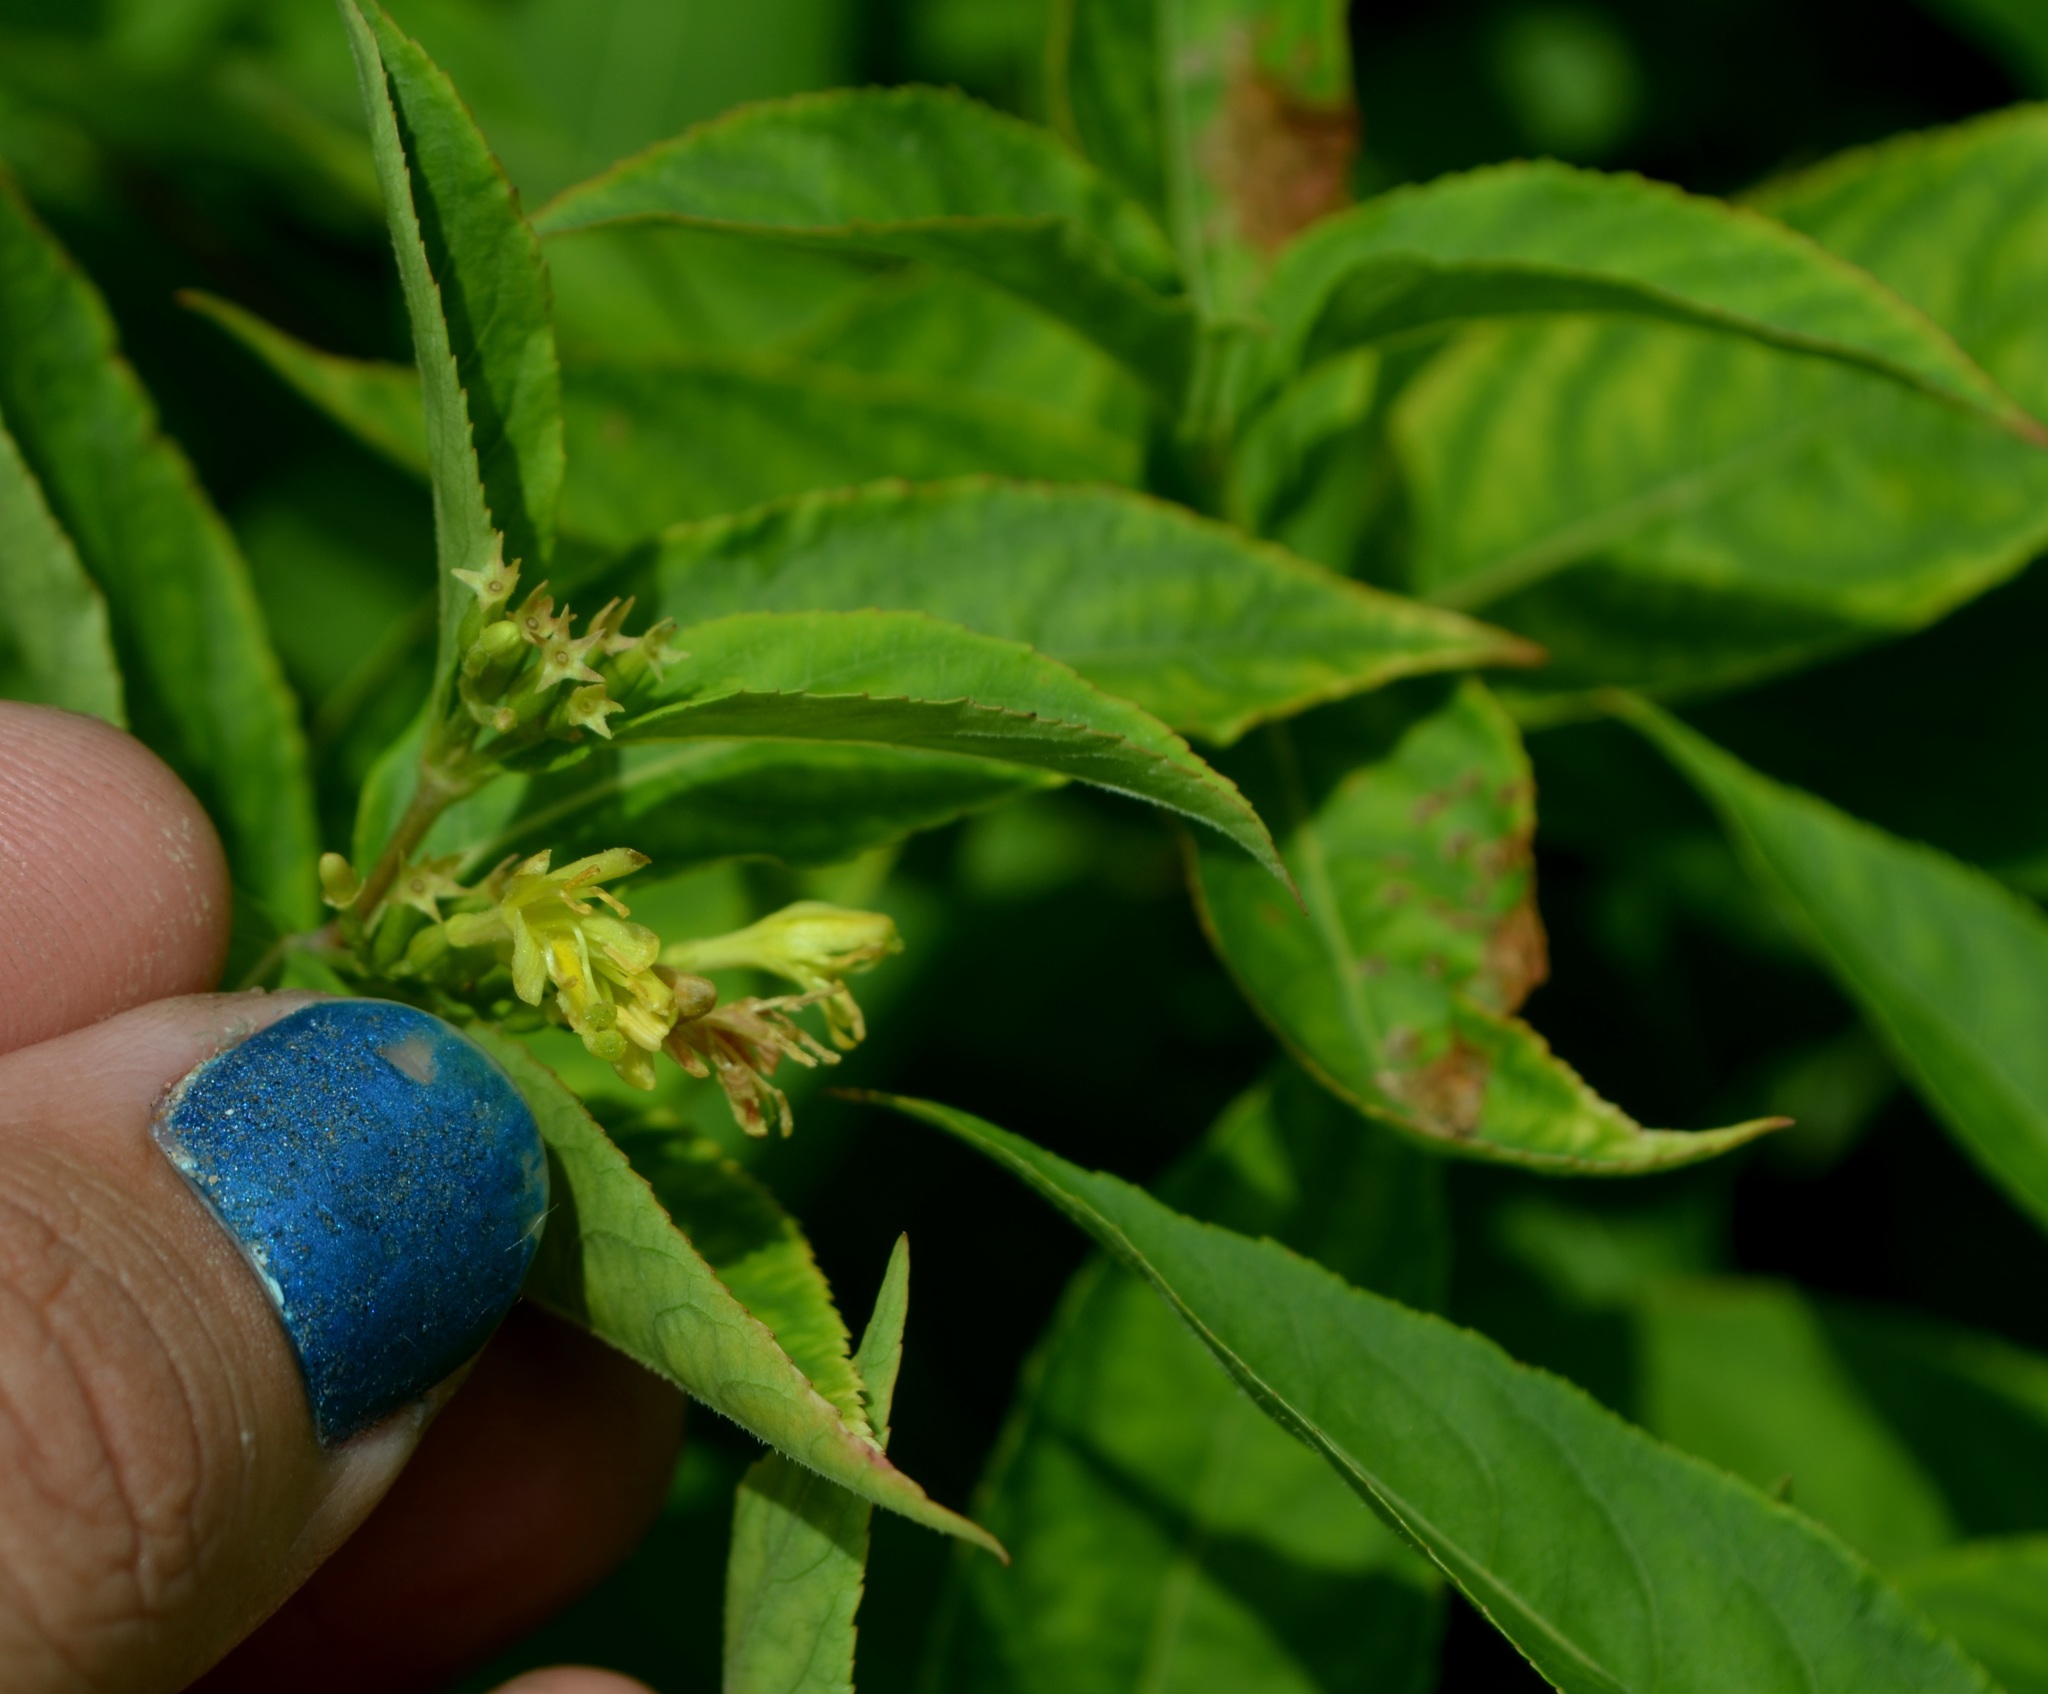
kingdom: Plantae
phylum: Tracheophyta
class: Magnoliopsida
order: Dipsacales
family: Caprifoliaceae
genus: Diervilla
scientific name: Diervilla lonicera
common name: Bush-honeysuckle
